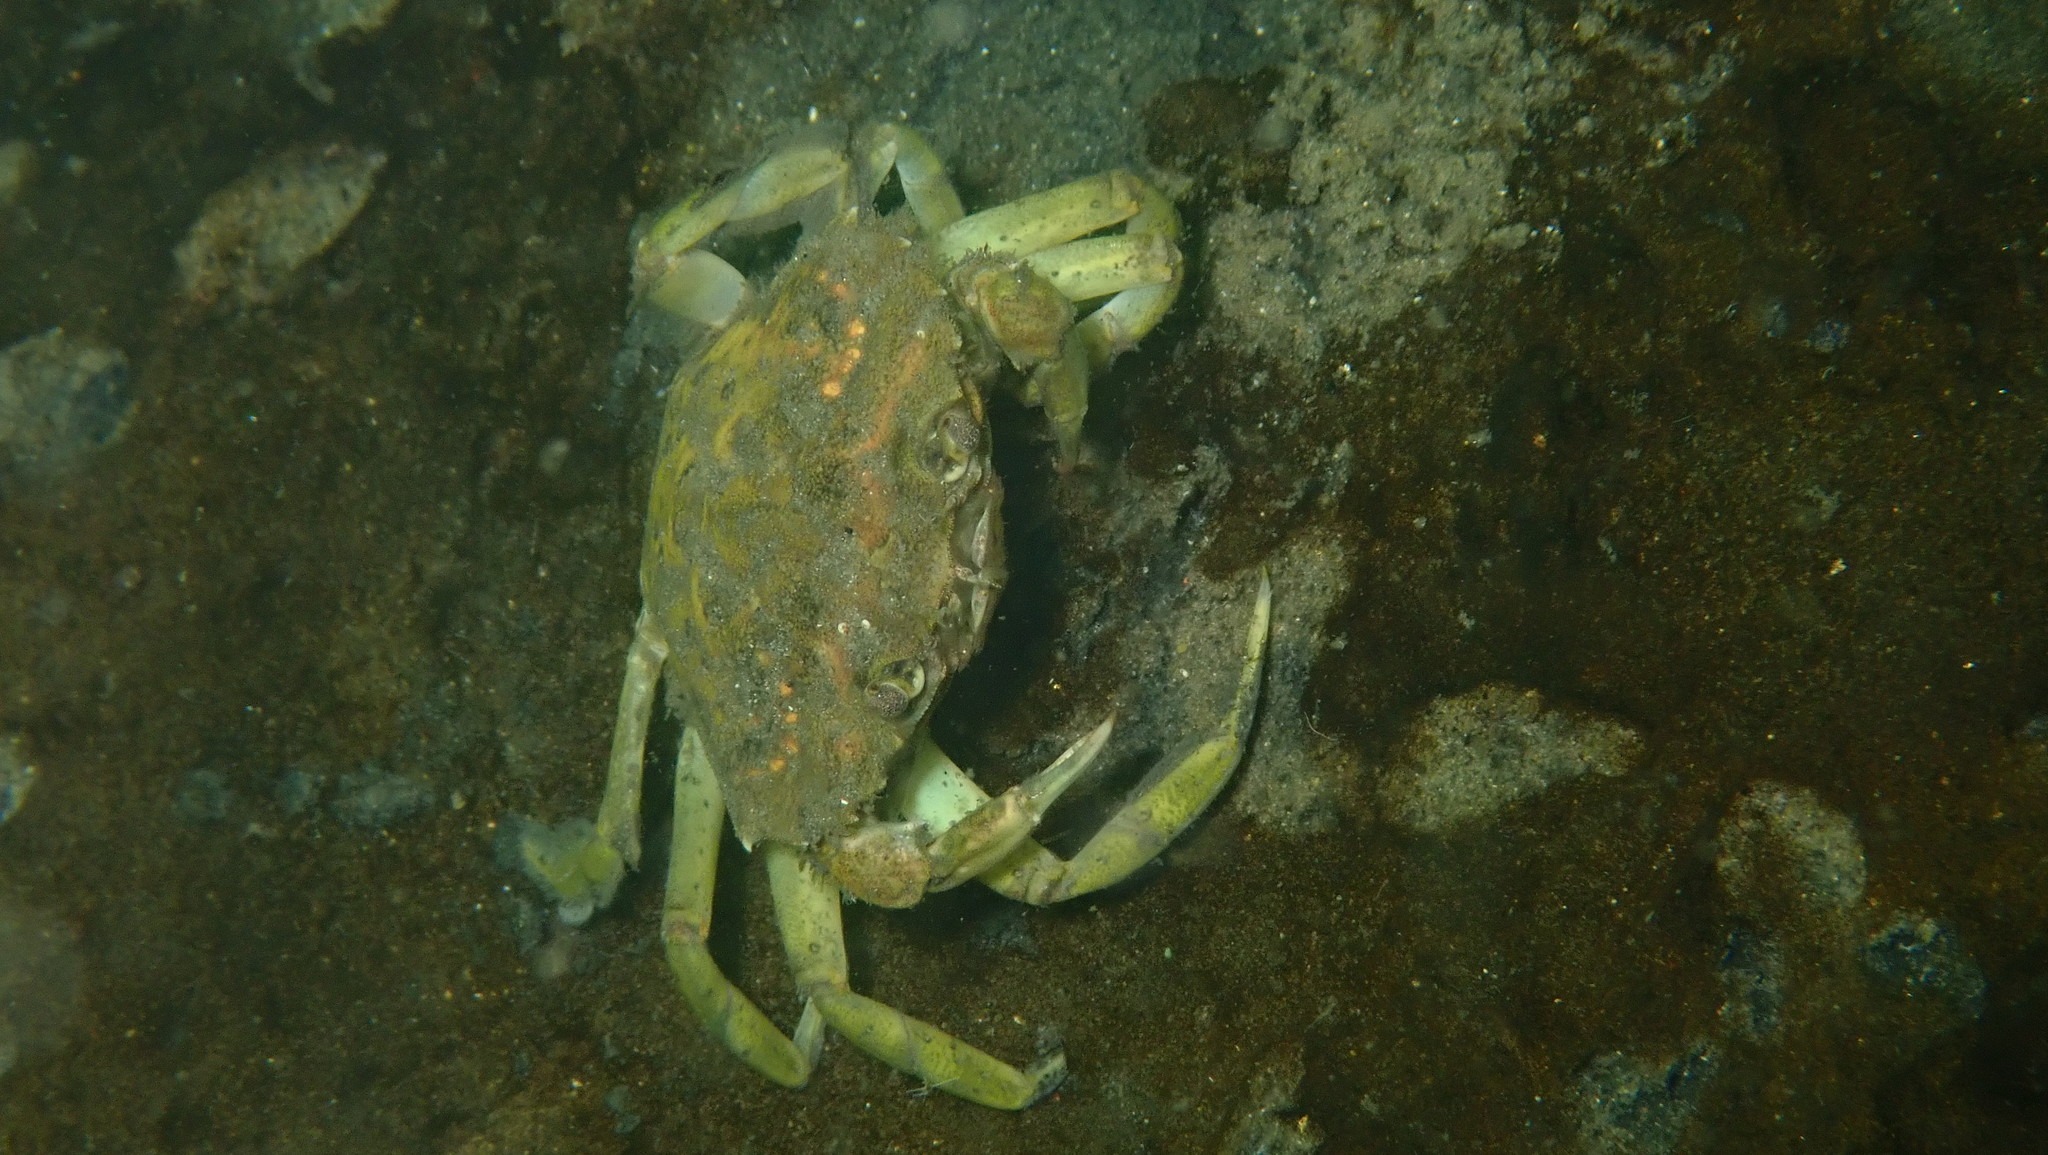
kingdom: Animalia
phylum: Arthropoda
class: Malacostraca
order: Decapoda
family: Carcinidae
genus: Carcinus
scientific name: Carcinus maenas
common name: European green crab
